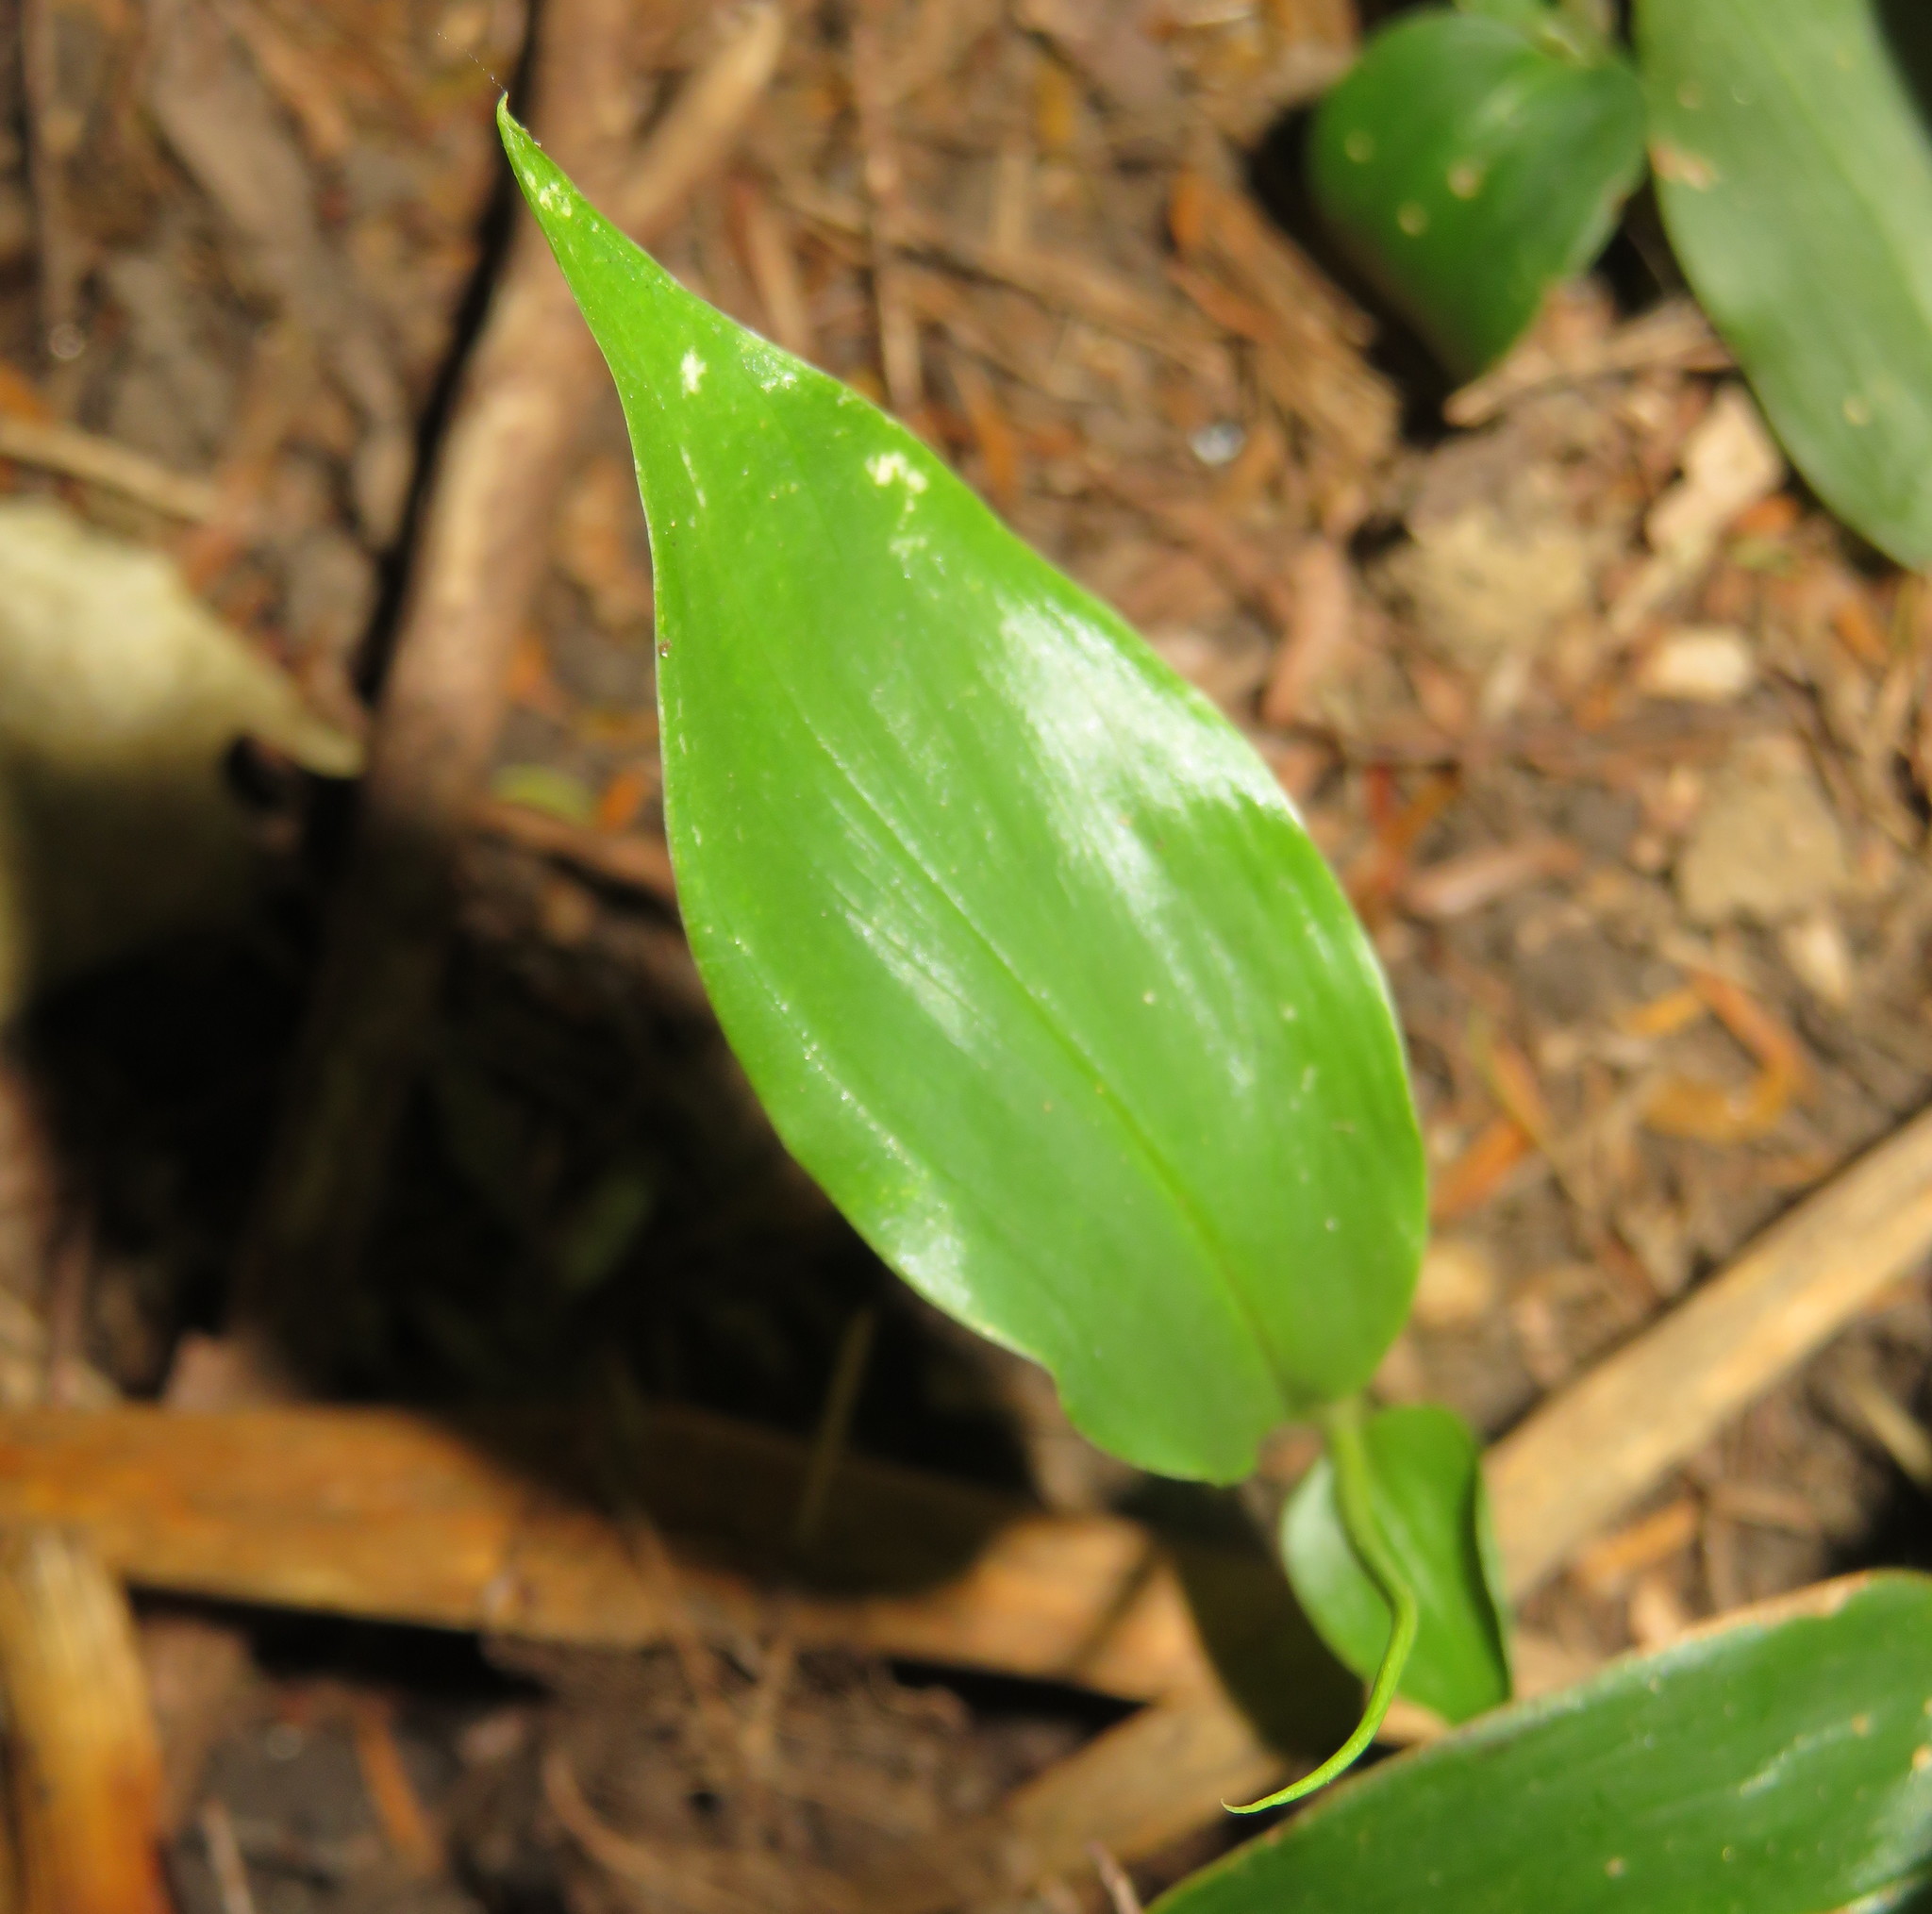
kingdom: Plantae
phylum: Tracheophyta
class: Liliopsida
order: Zingiberales
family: Zingiberaceae
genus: Hedychium
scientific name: Hedychium gardnerianum
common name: Himalayan ginger
